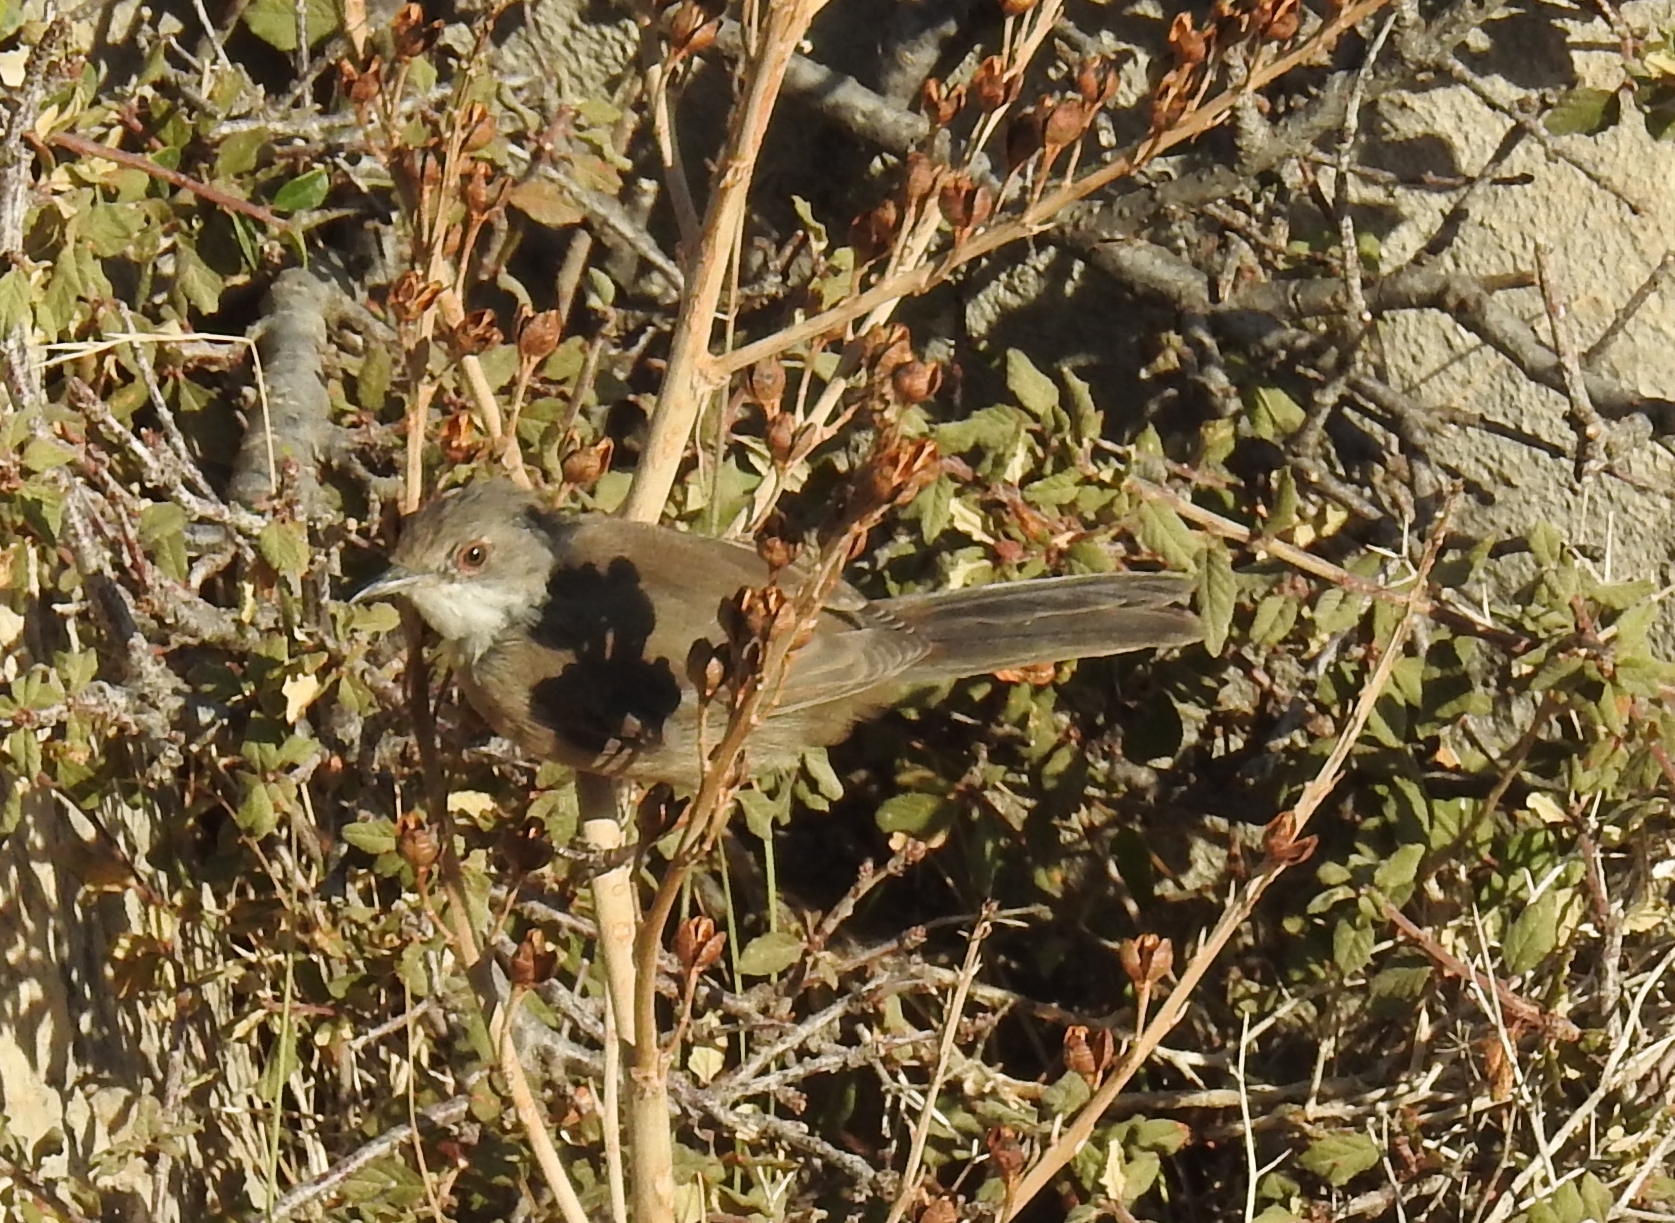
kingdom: Animalia
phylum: Chordata
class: Aves
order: Passeriformes
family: Sylviidae
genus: Curruca
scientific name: Curruca melanocephala
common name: Sardinian warbler
